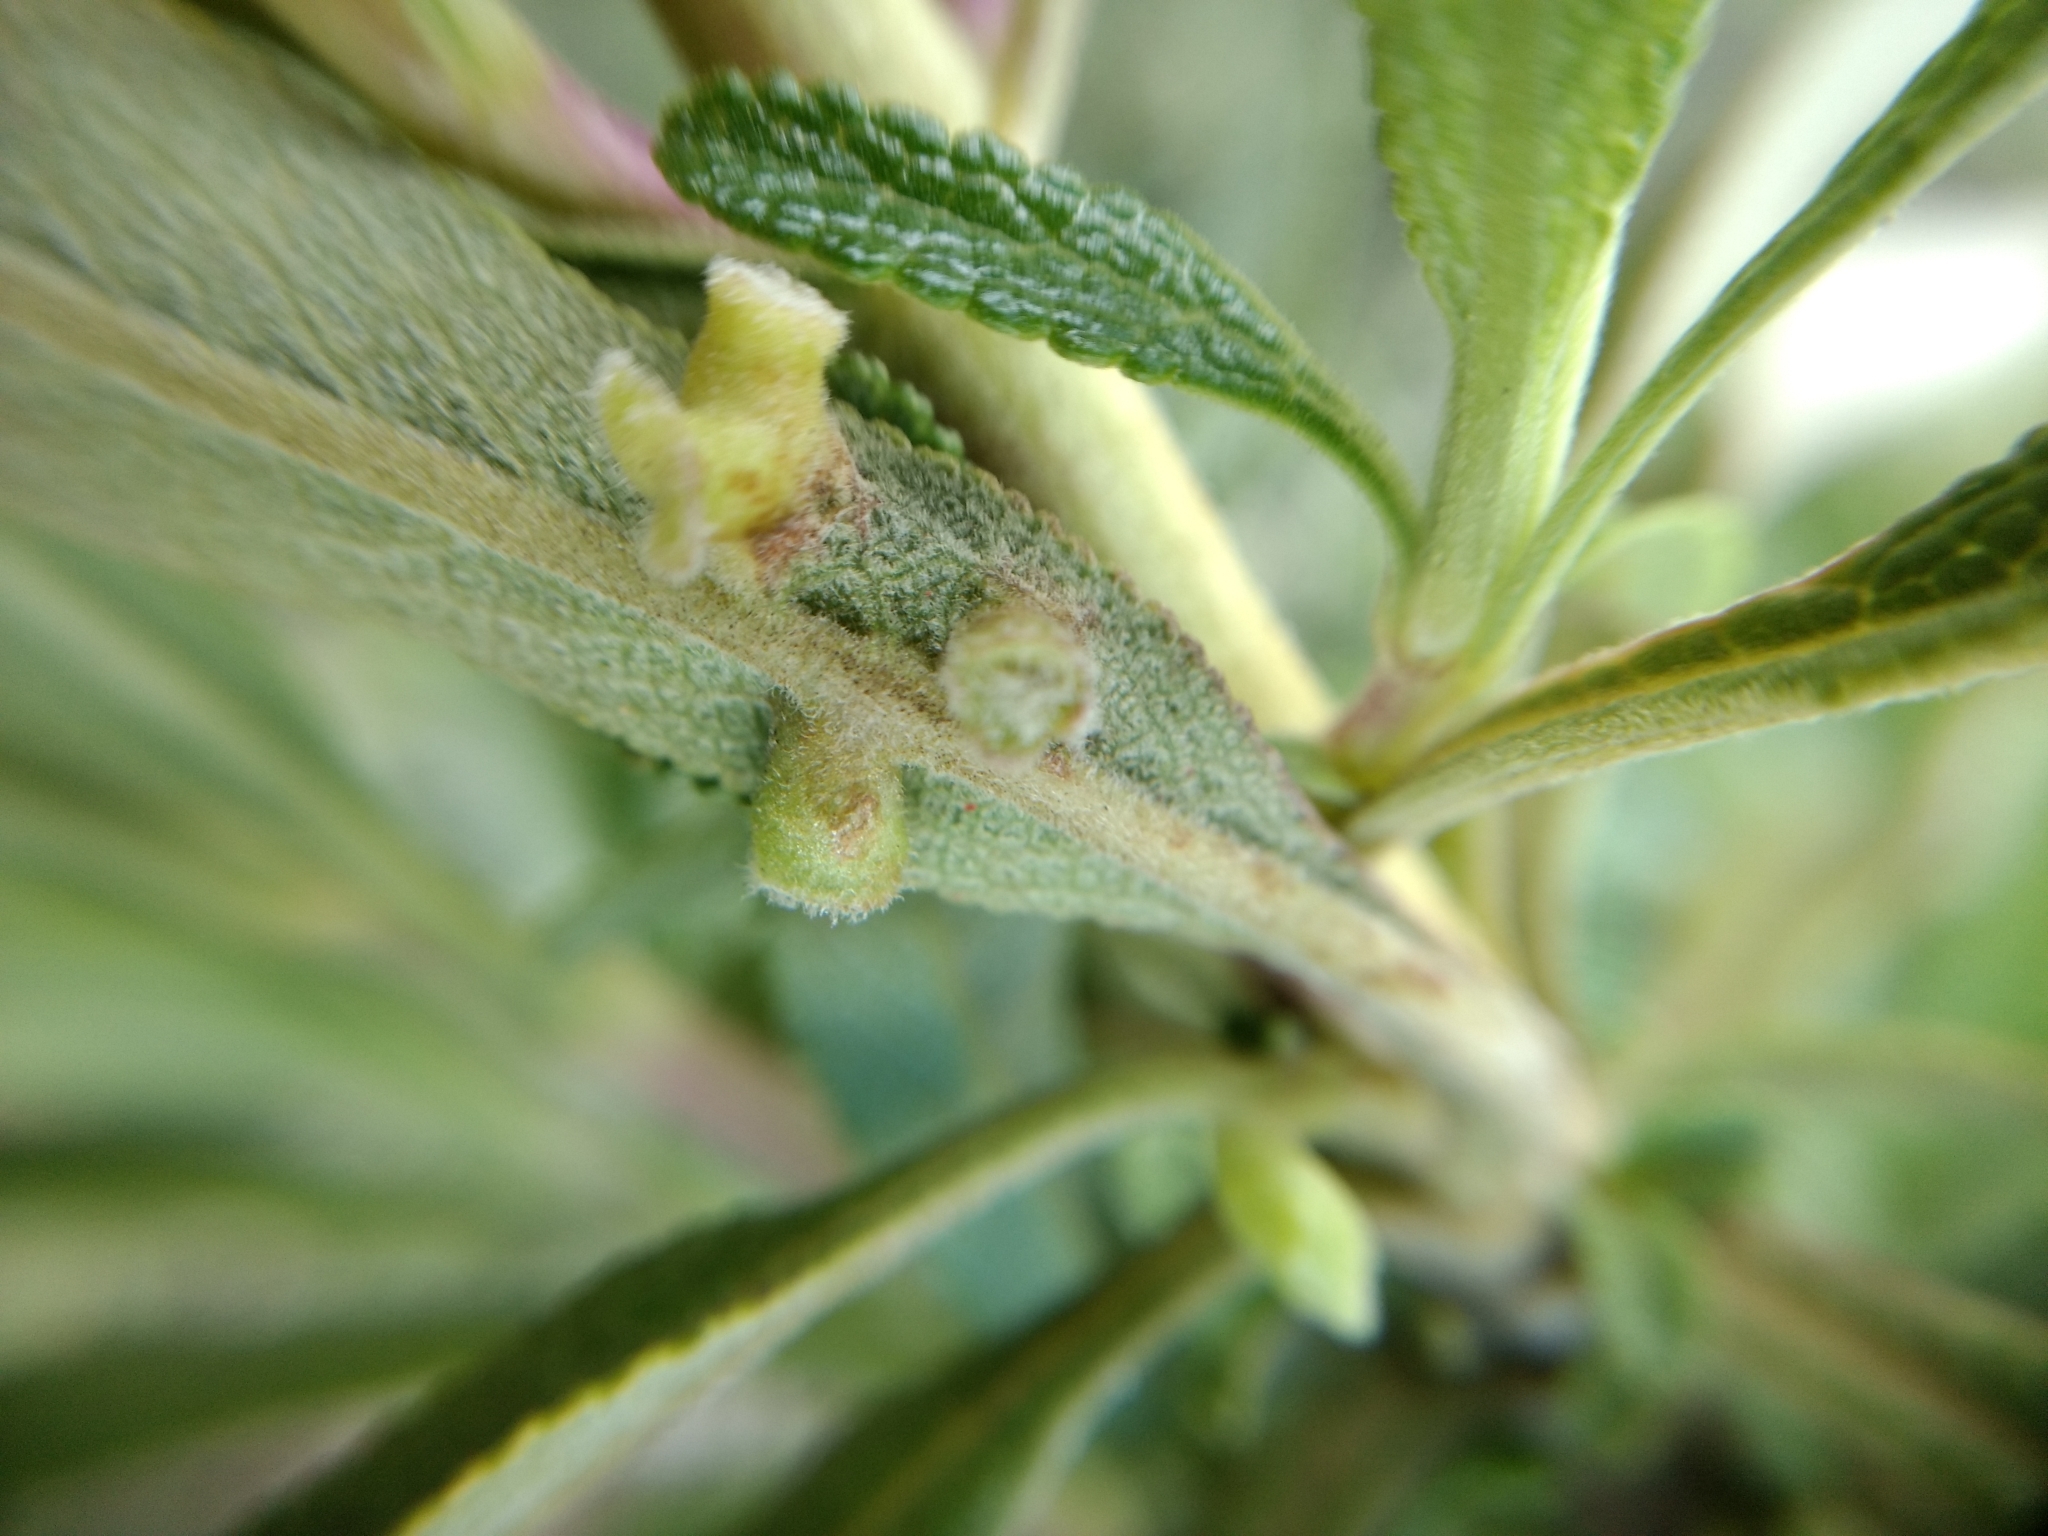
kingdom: Animalia
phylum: Arthropoda
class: Insecta
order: Diptera
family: Cecidomyiidae
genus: Rhopalomyia
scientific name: Rhopalomyia audibertiae
